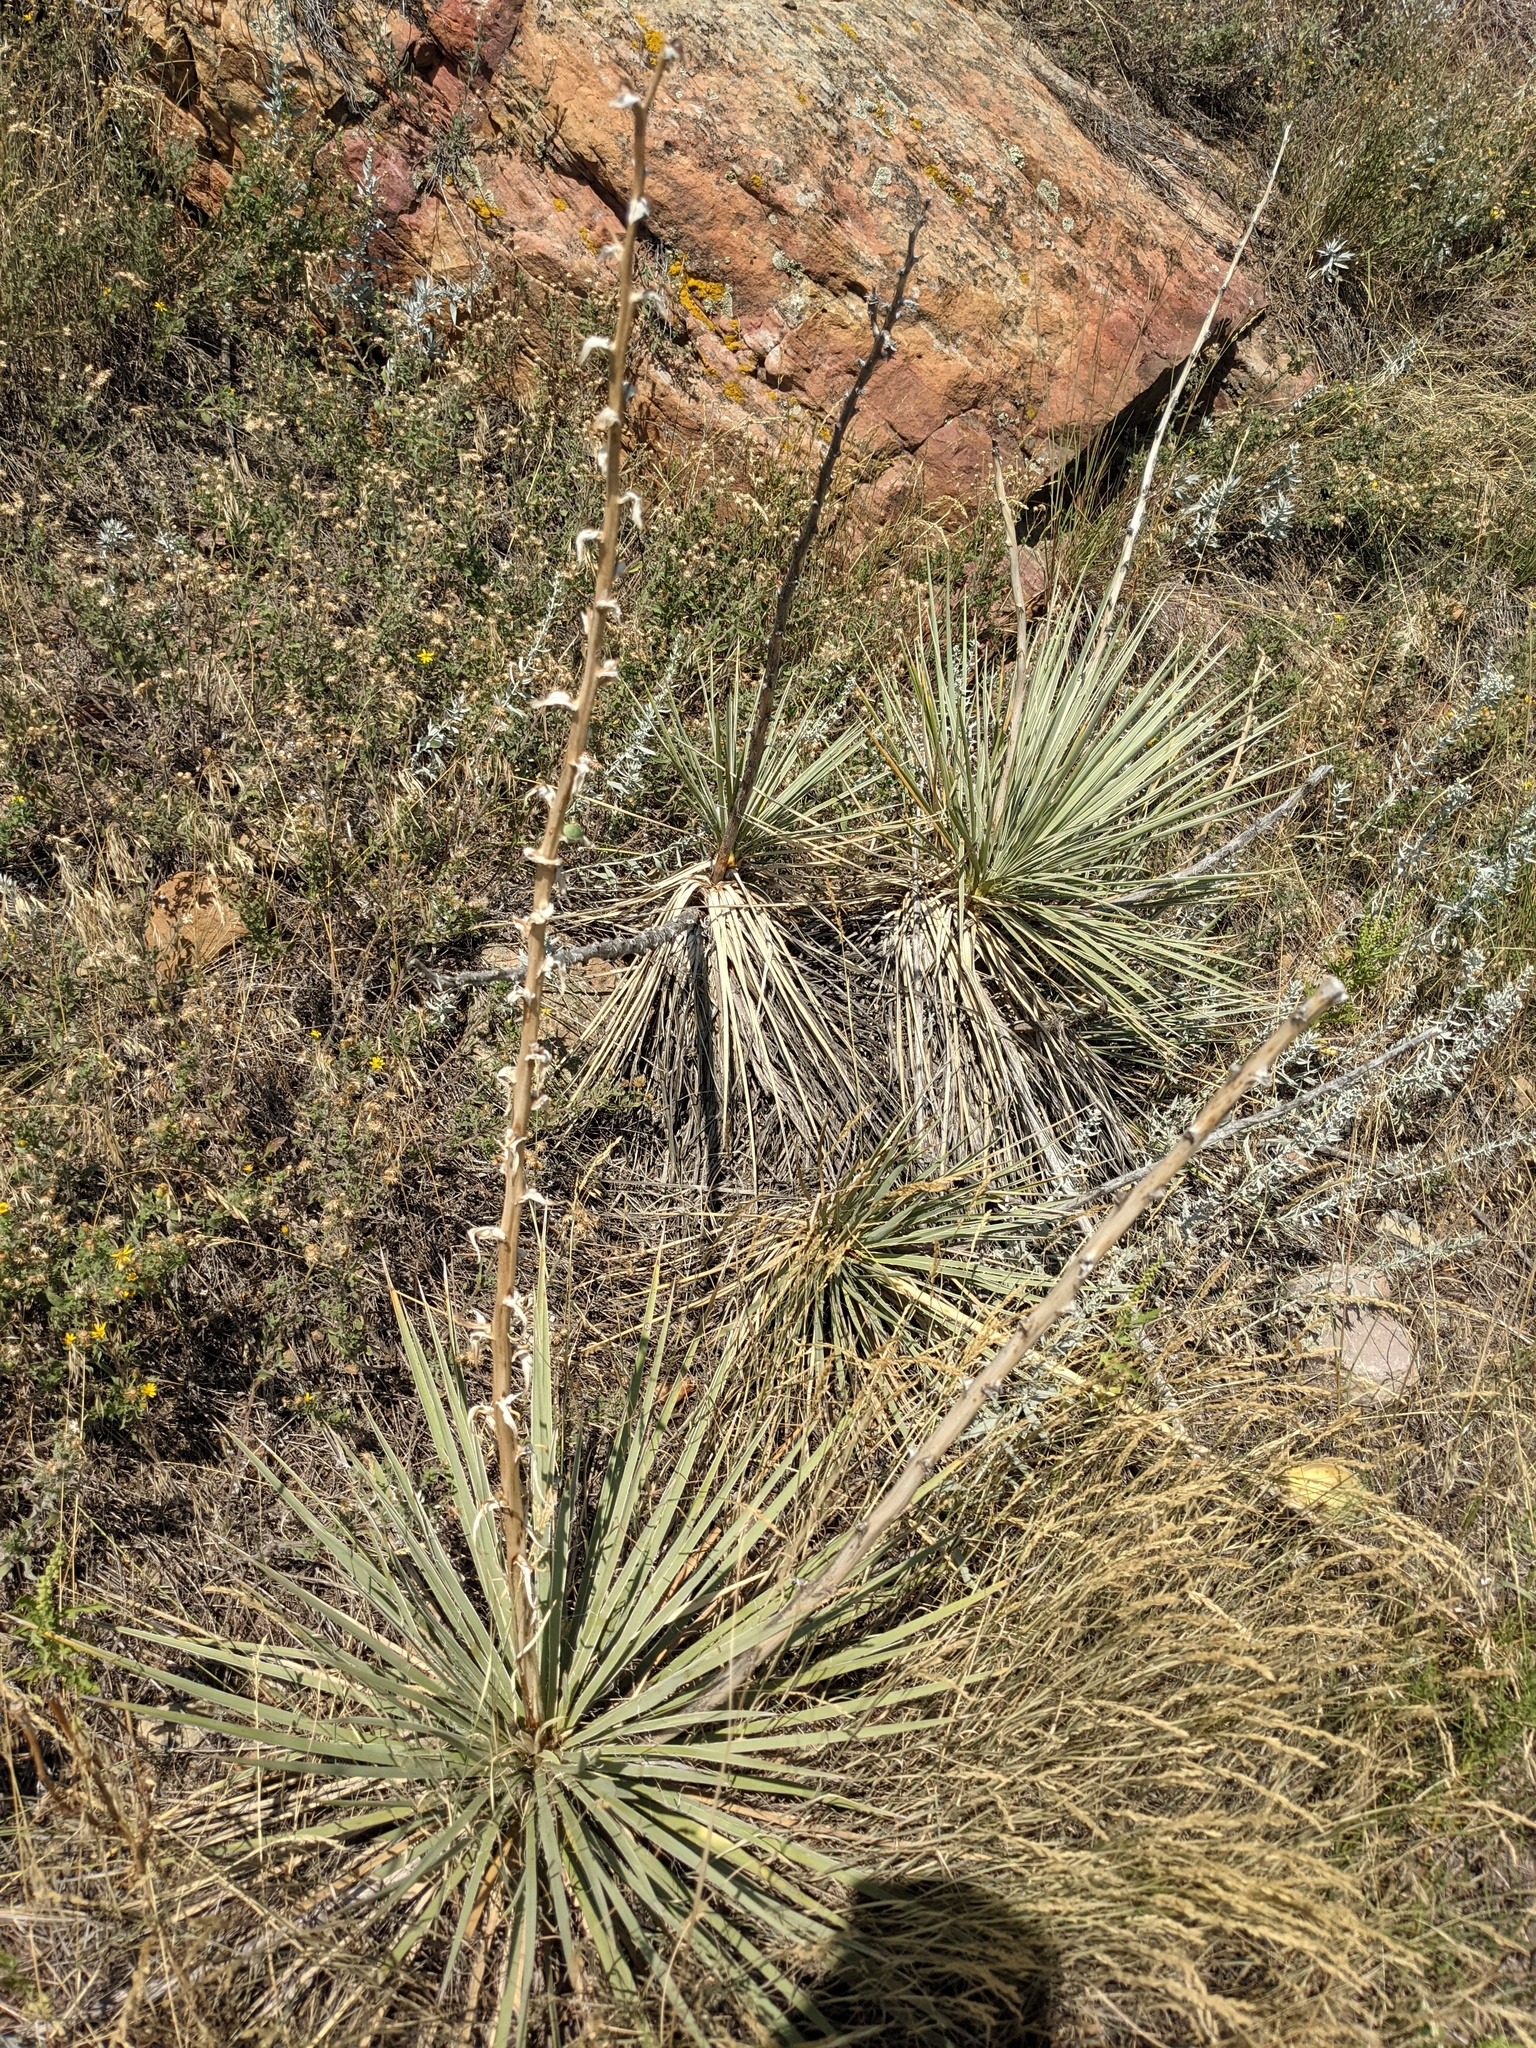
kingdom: Plantae
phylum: Tracheophyta
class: Liliopsida
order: Asparagales
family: Asparagaceae
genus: Yucca
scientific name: Yucca glauca
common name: Great plains yucca
